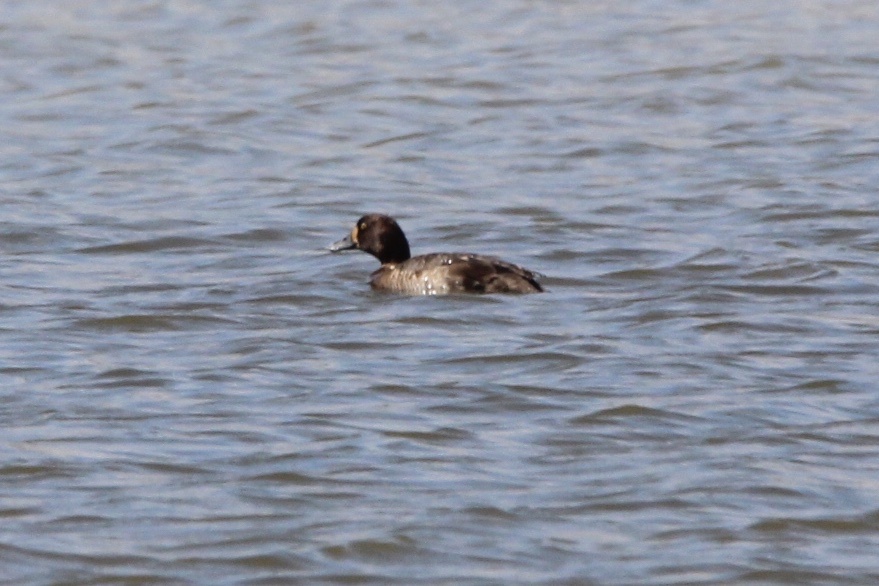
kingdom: Animalia
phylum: Chordata
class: Aves
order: Anseriformes
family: Anatidae
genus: Aythya
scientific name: Aythya marila
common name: Greater scaup
